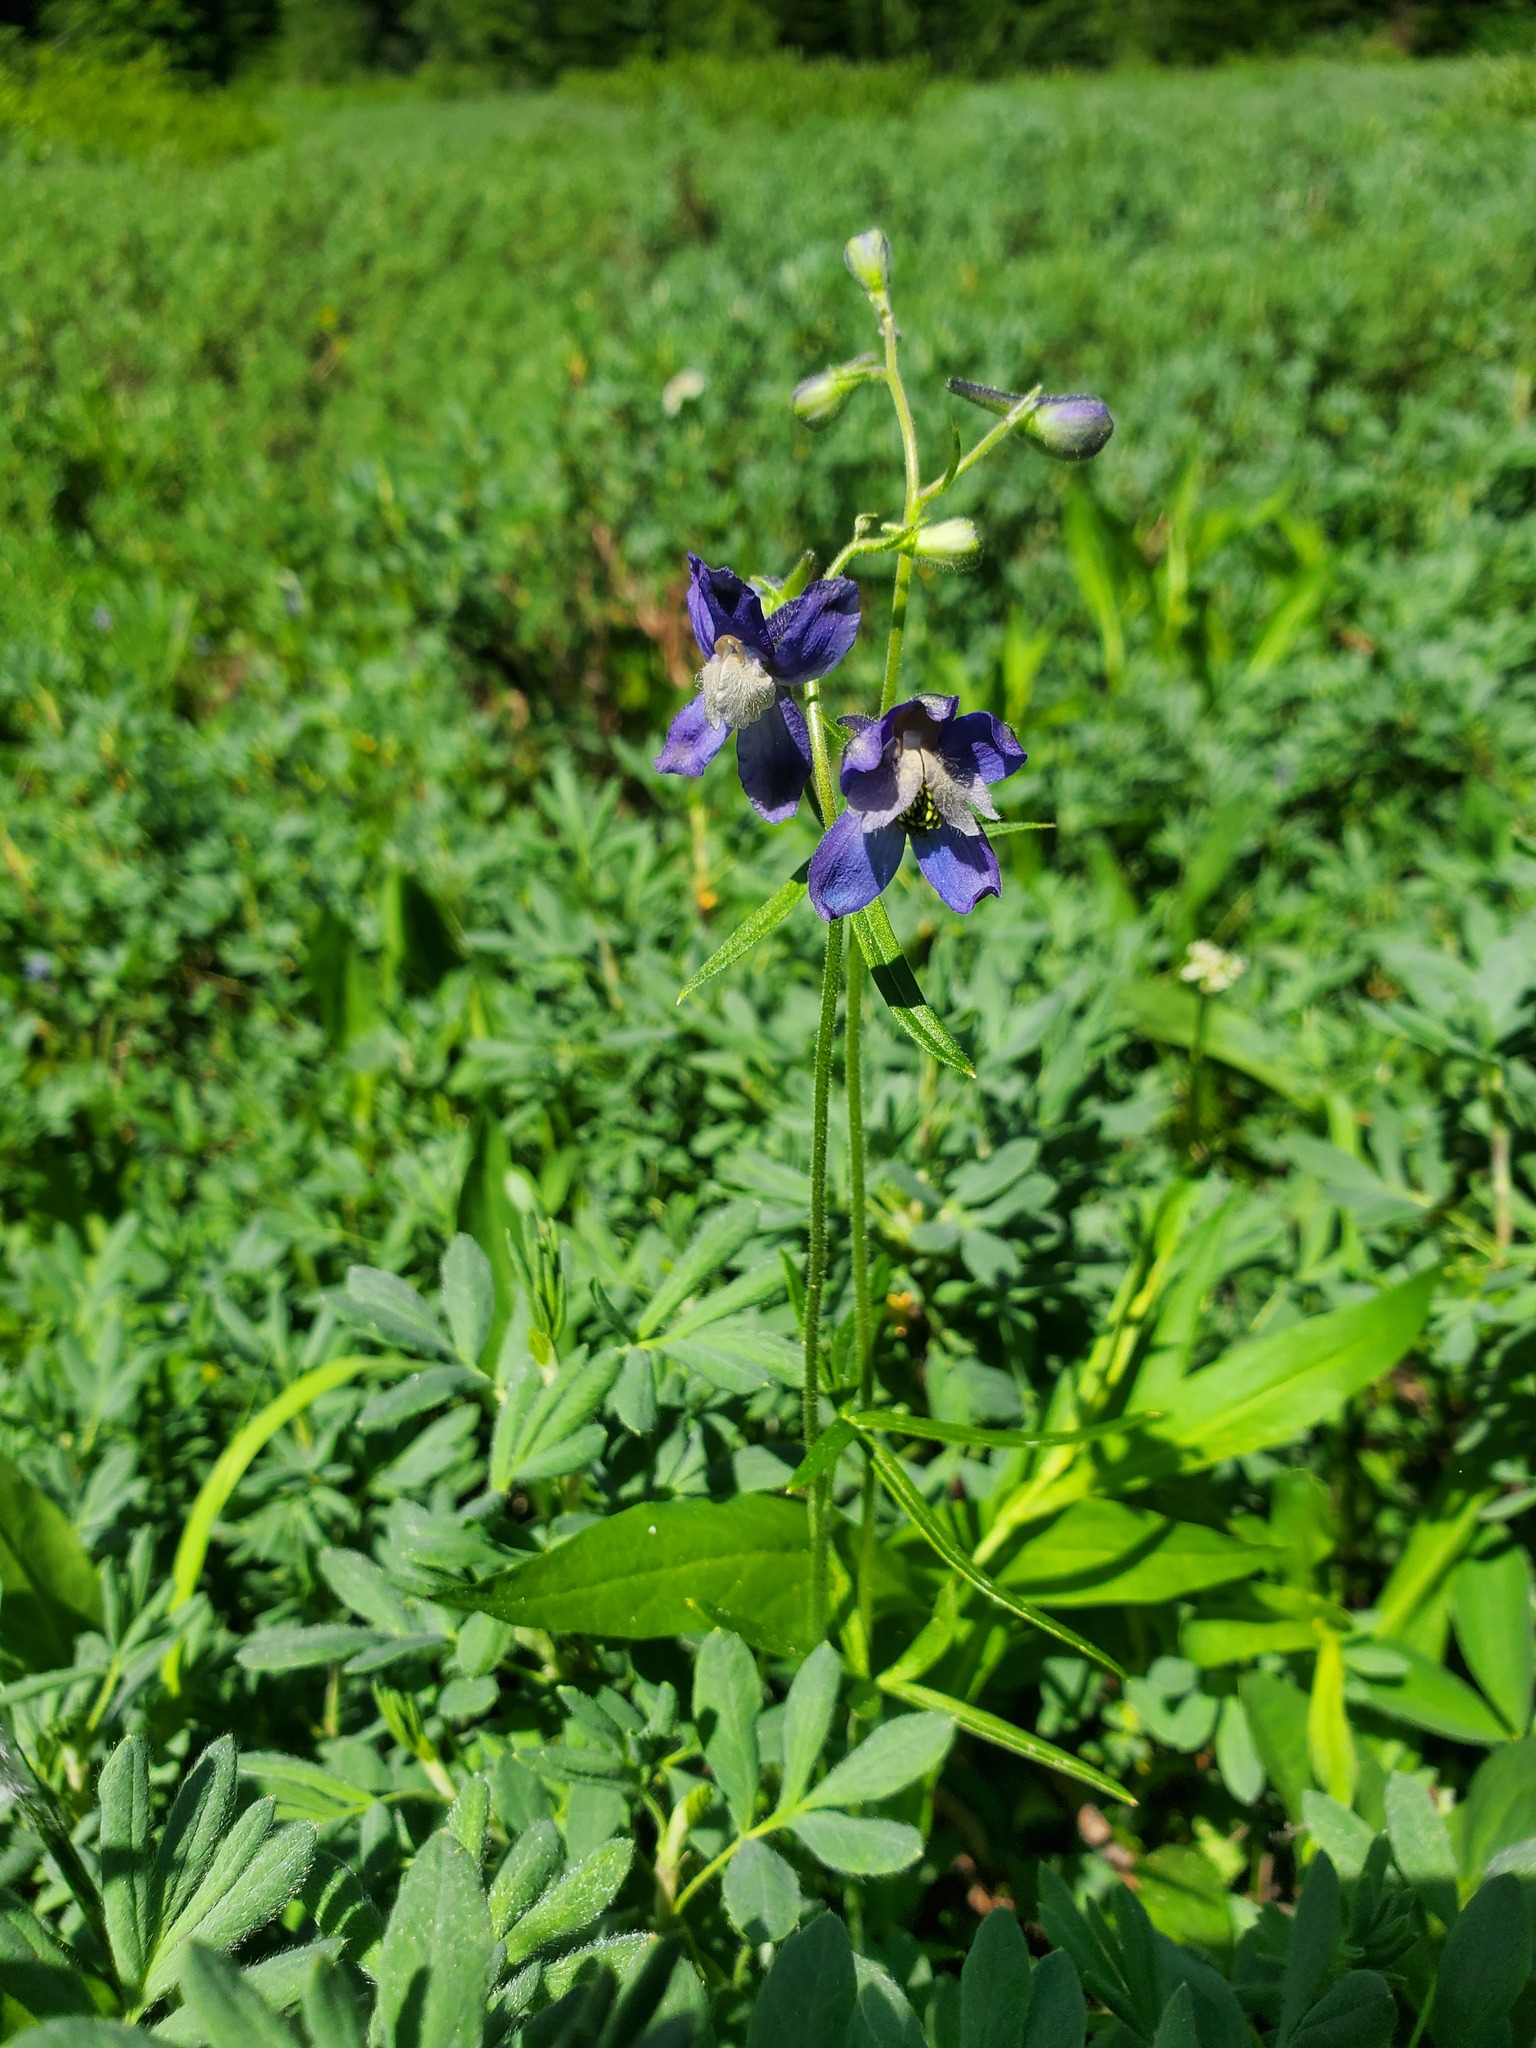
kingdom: Plantae
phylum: Tracheophyta
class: Magnoliopsida
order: Ranunculales
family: Ranunculaceae
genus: Delphinium
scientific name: Delphinium sutherlandii
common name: Sutherland's larkspur
